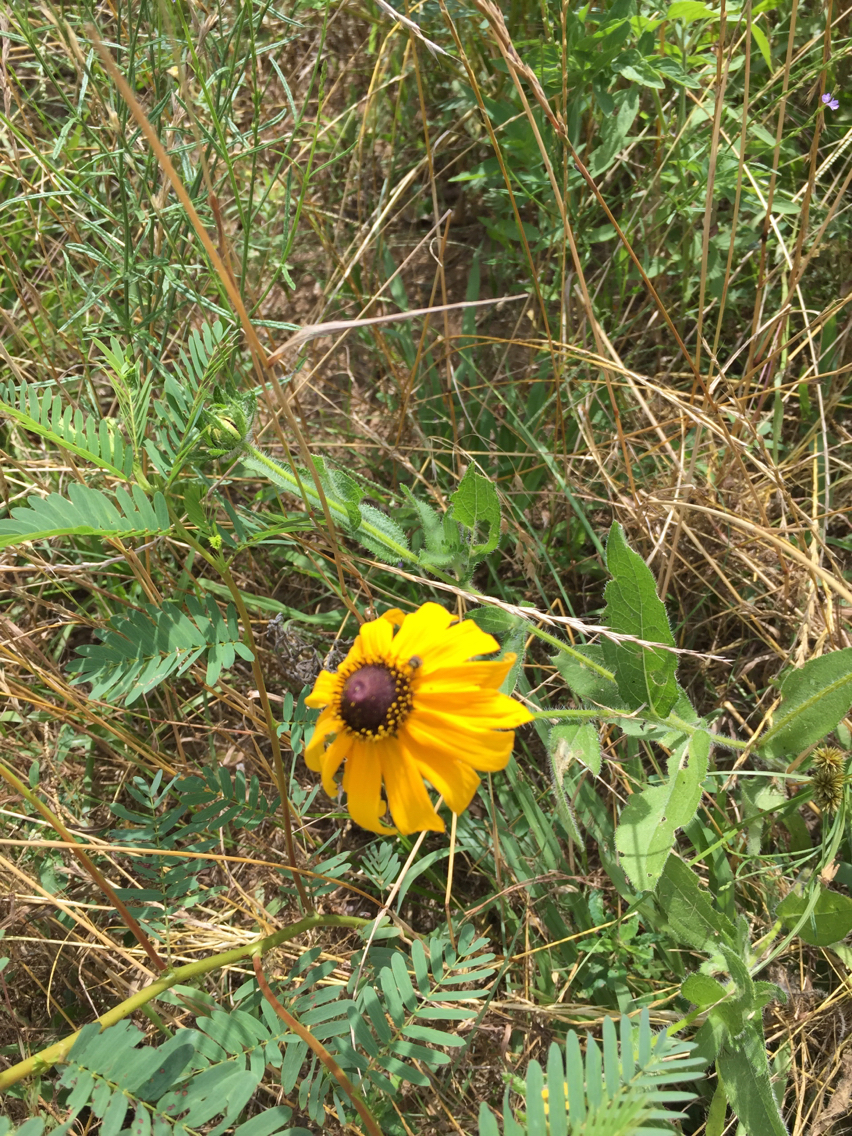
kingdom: Plantae
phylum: Tracheophyta
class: Magnoliopsida
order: Asterales
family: Asteraceae
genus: Rudbeckia
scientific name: Rudbeckia hirta
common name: Black-eyed-susan
